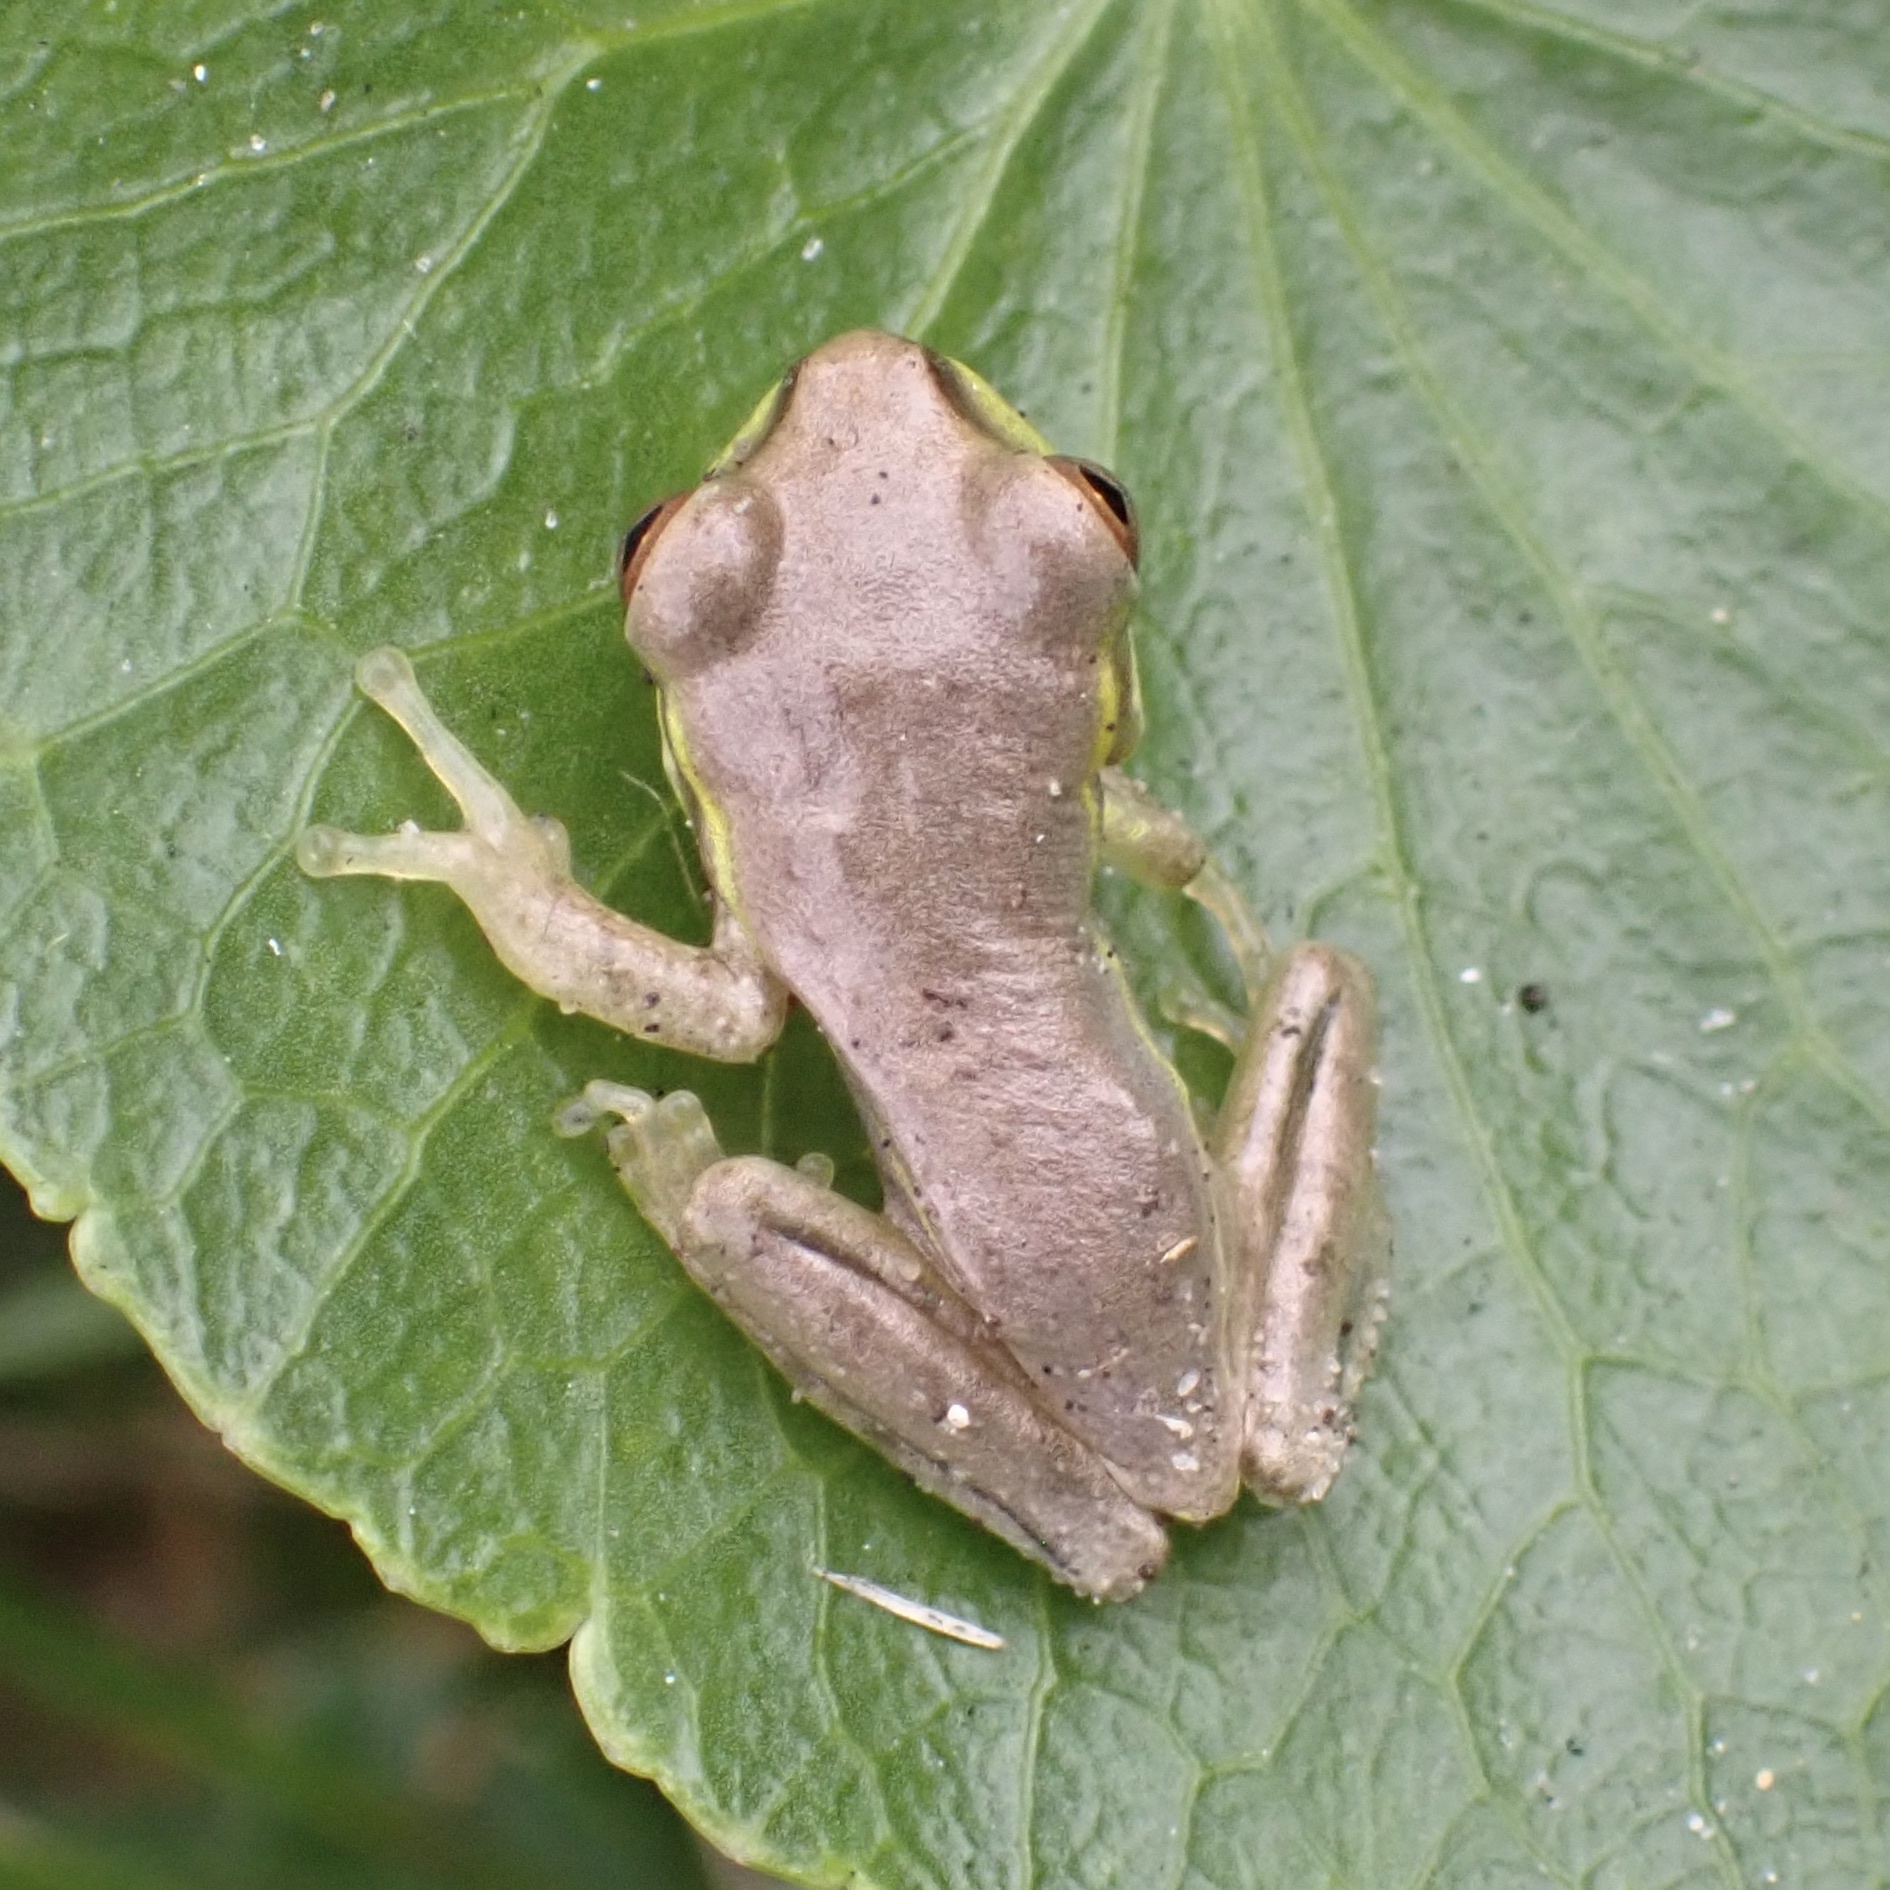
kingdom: Animalia
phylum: Chordata
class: Amphibia
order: Anura
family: Hylidae
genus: Osteopilus
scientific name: Osteopilus septentrionalis
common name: Cuban treefrog
